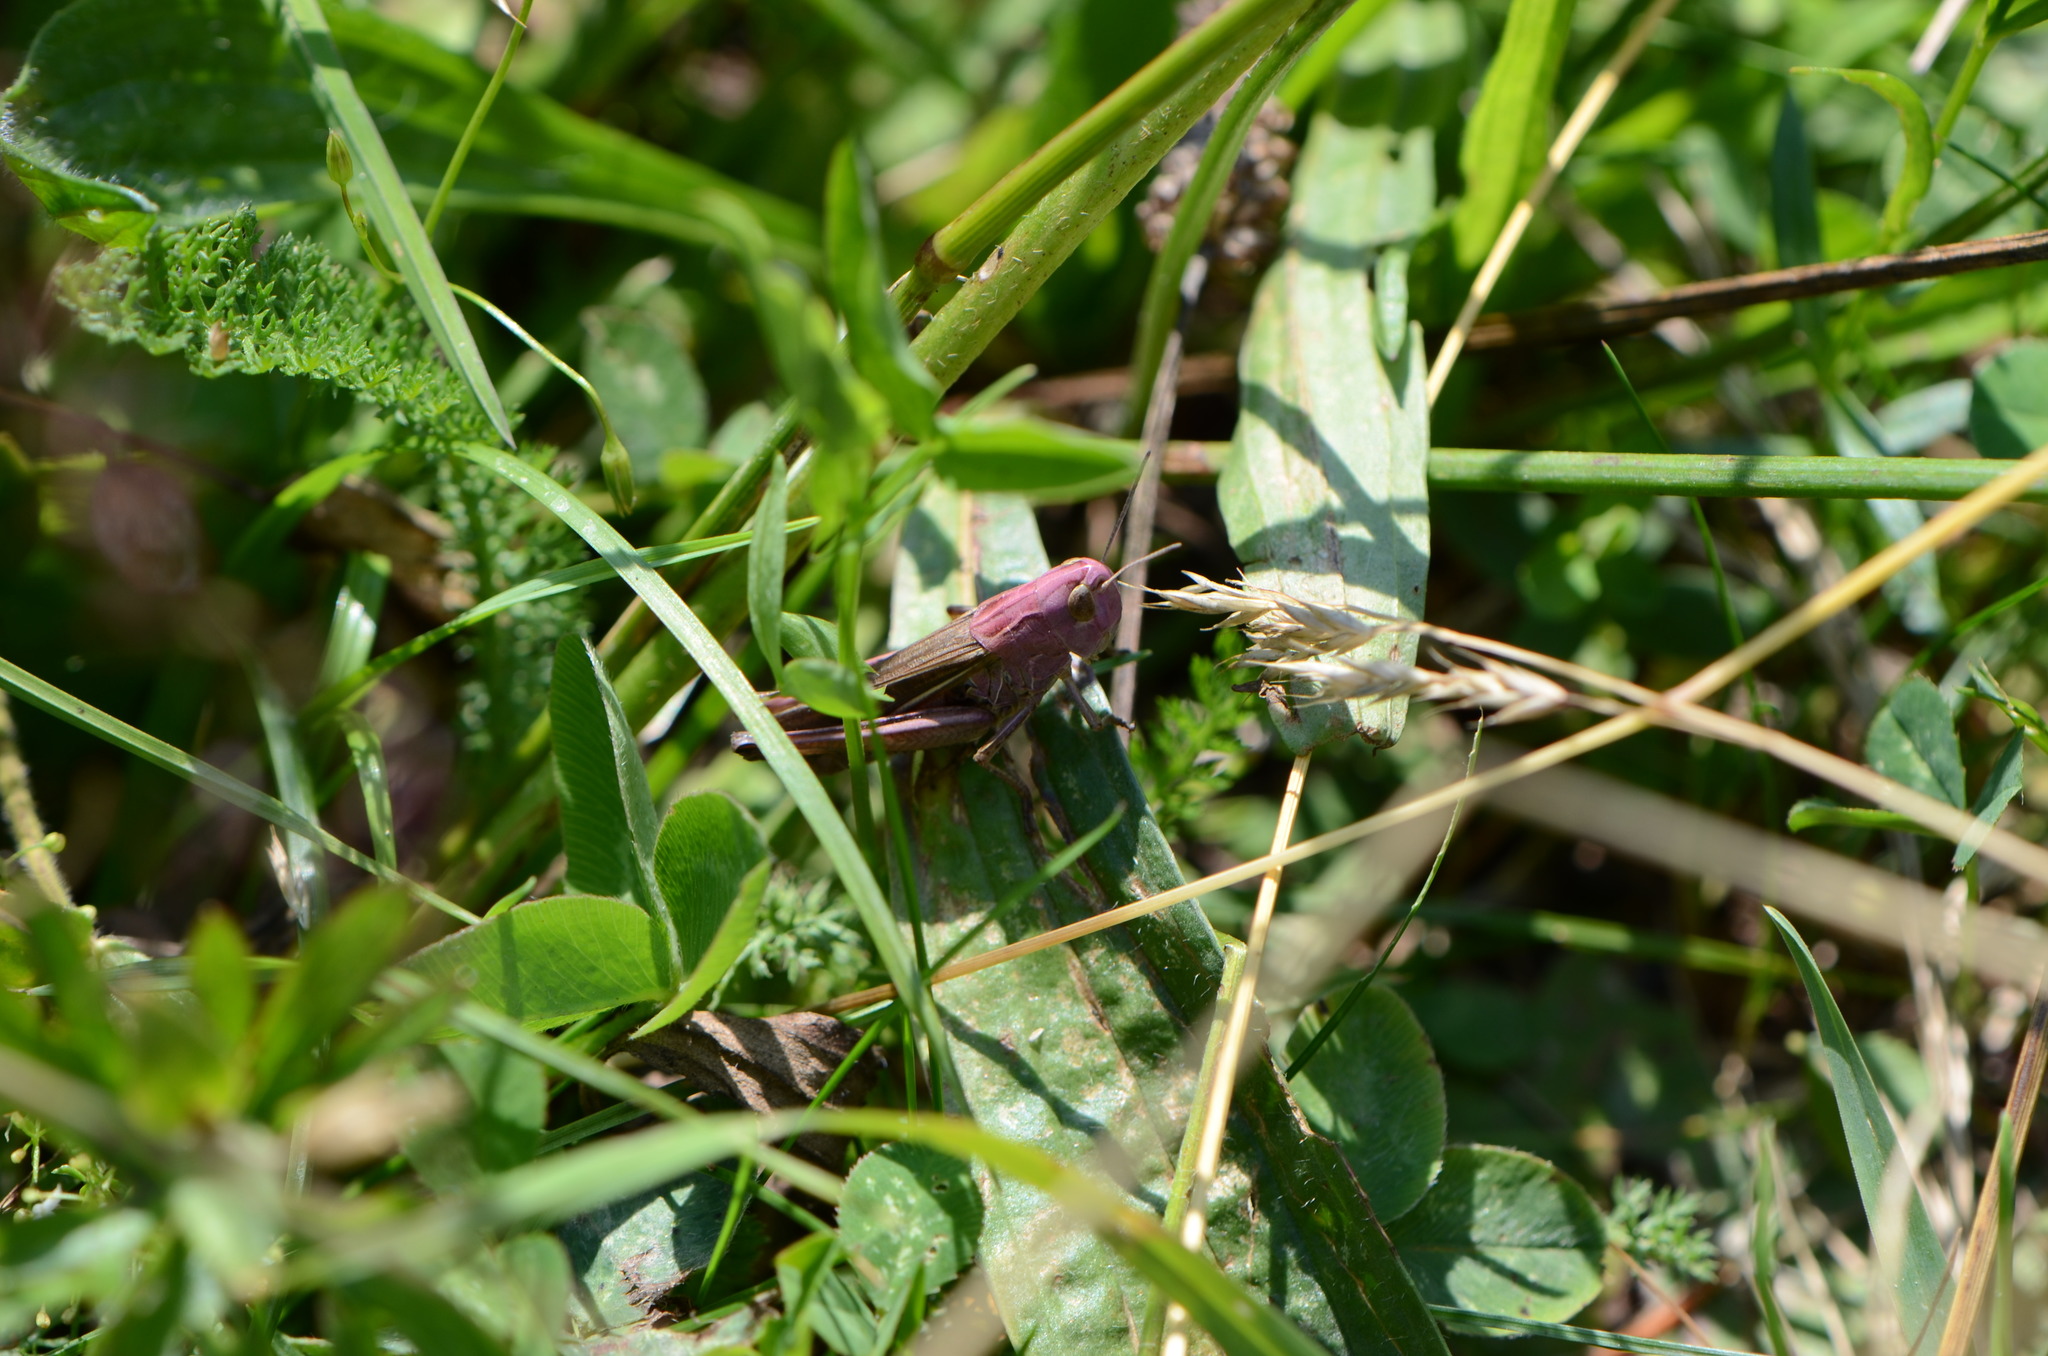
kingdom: Animalia
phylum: Arthropoda
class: Insecta
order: Orthoptera
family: Acrididae
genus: Stenobothrus
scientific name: Stenobothrus lineatus
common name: Stripe-winged grasshopper
